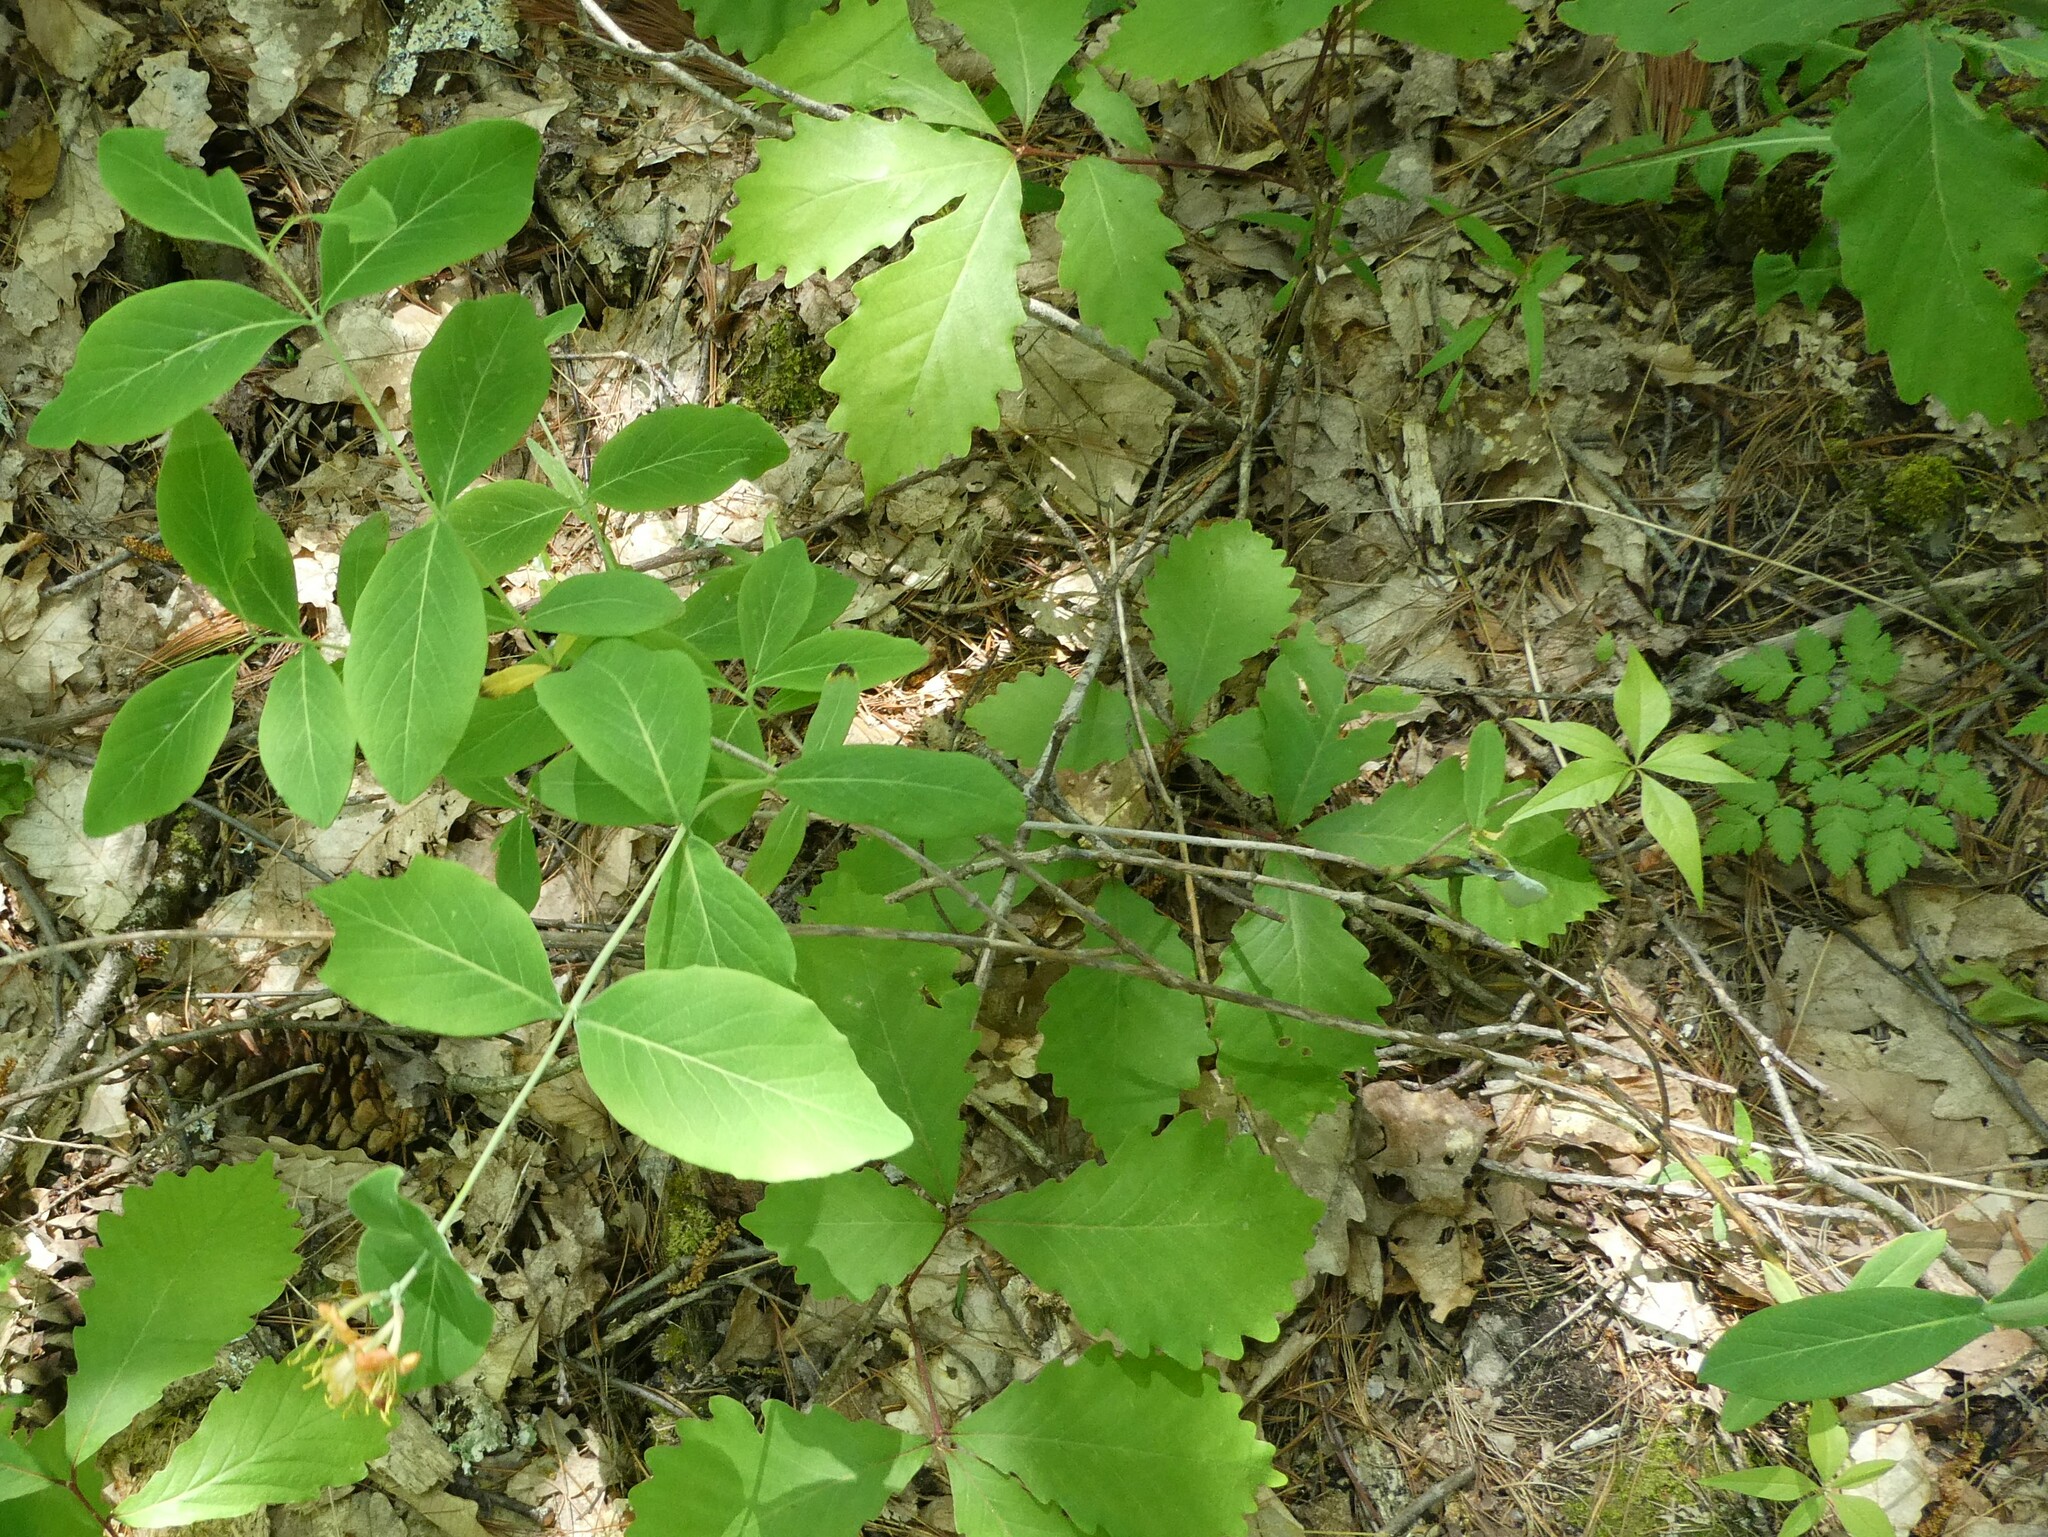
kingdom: Plantae
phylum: Tracheophyta
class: Magnoliopsida
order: Dipsacales
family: Caprifoliaceae
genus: Lonicera
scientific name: Lonicera dioica
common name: Limber honeysuckle
